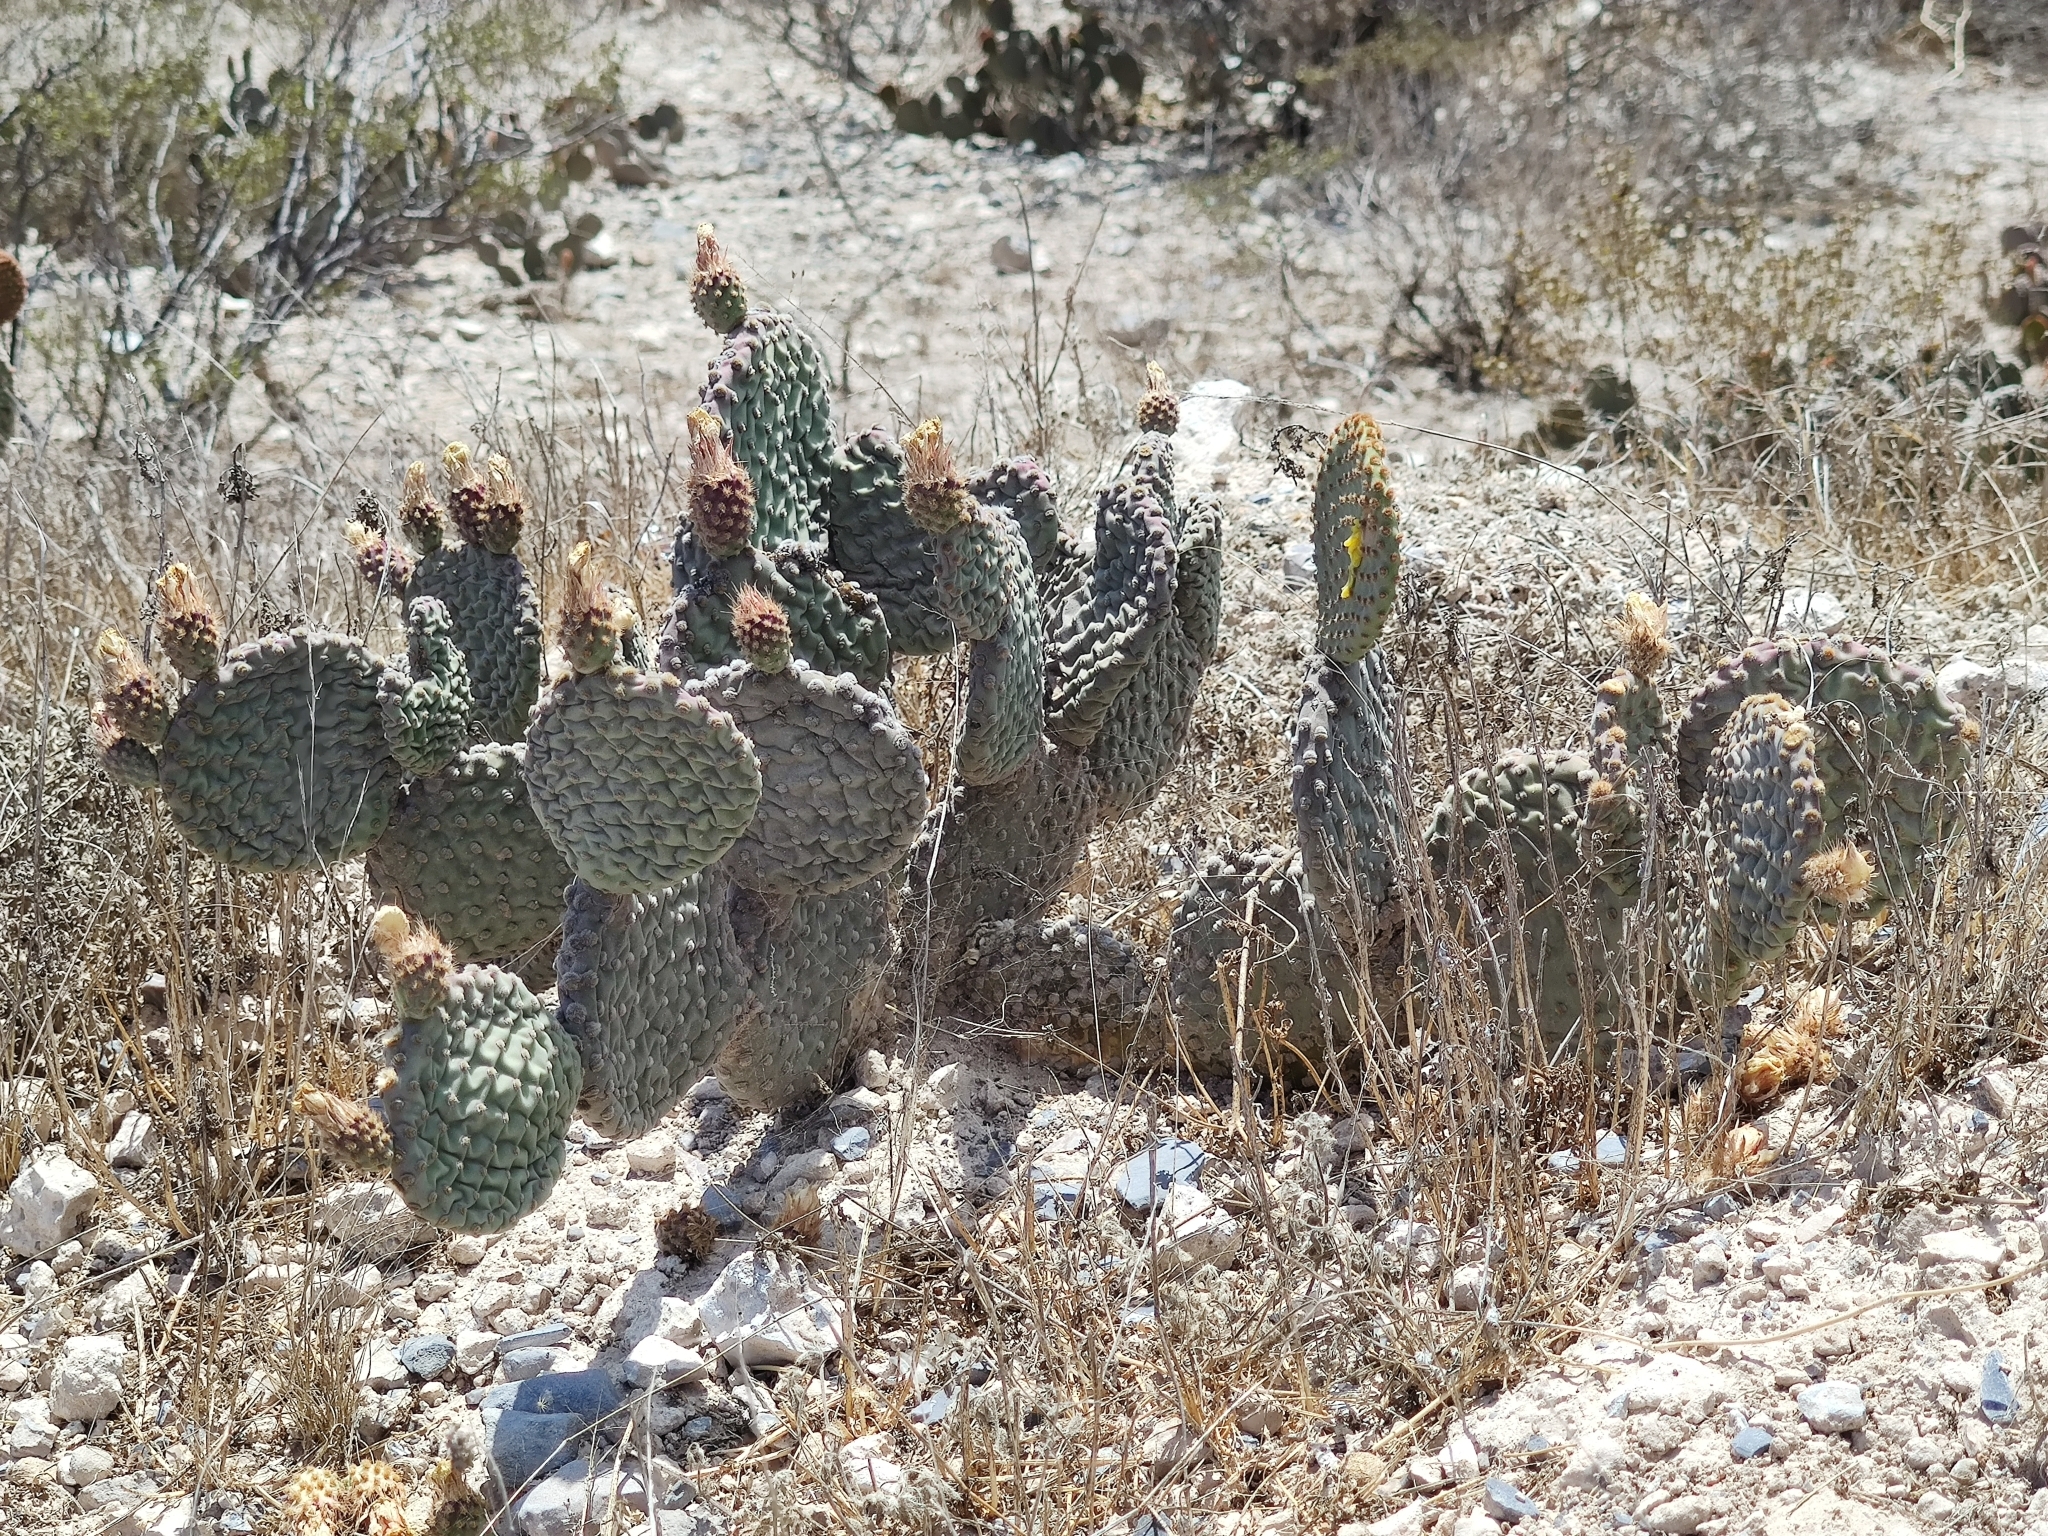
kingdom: Plantae
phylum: Tracheophyta
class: Magnoliopsida
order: Caryophyllales
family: Cactaceae
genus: Opuntia
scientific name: Opuntia rufida
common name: Blind pricklypear
